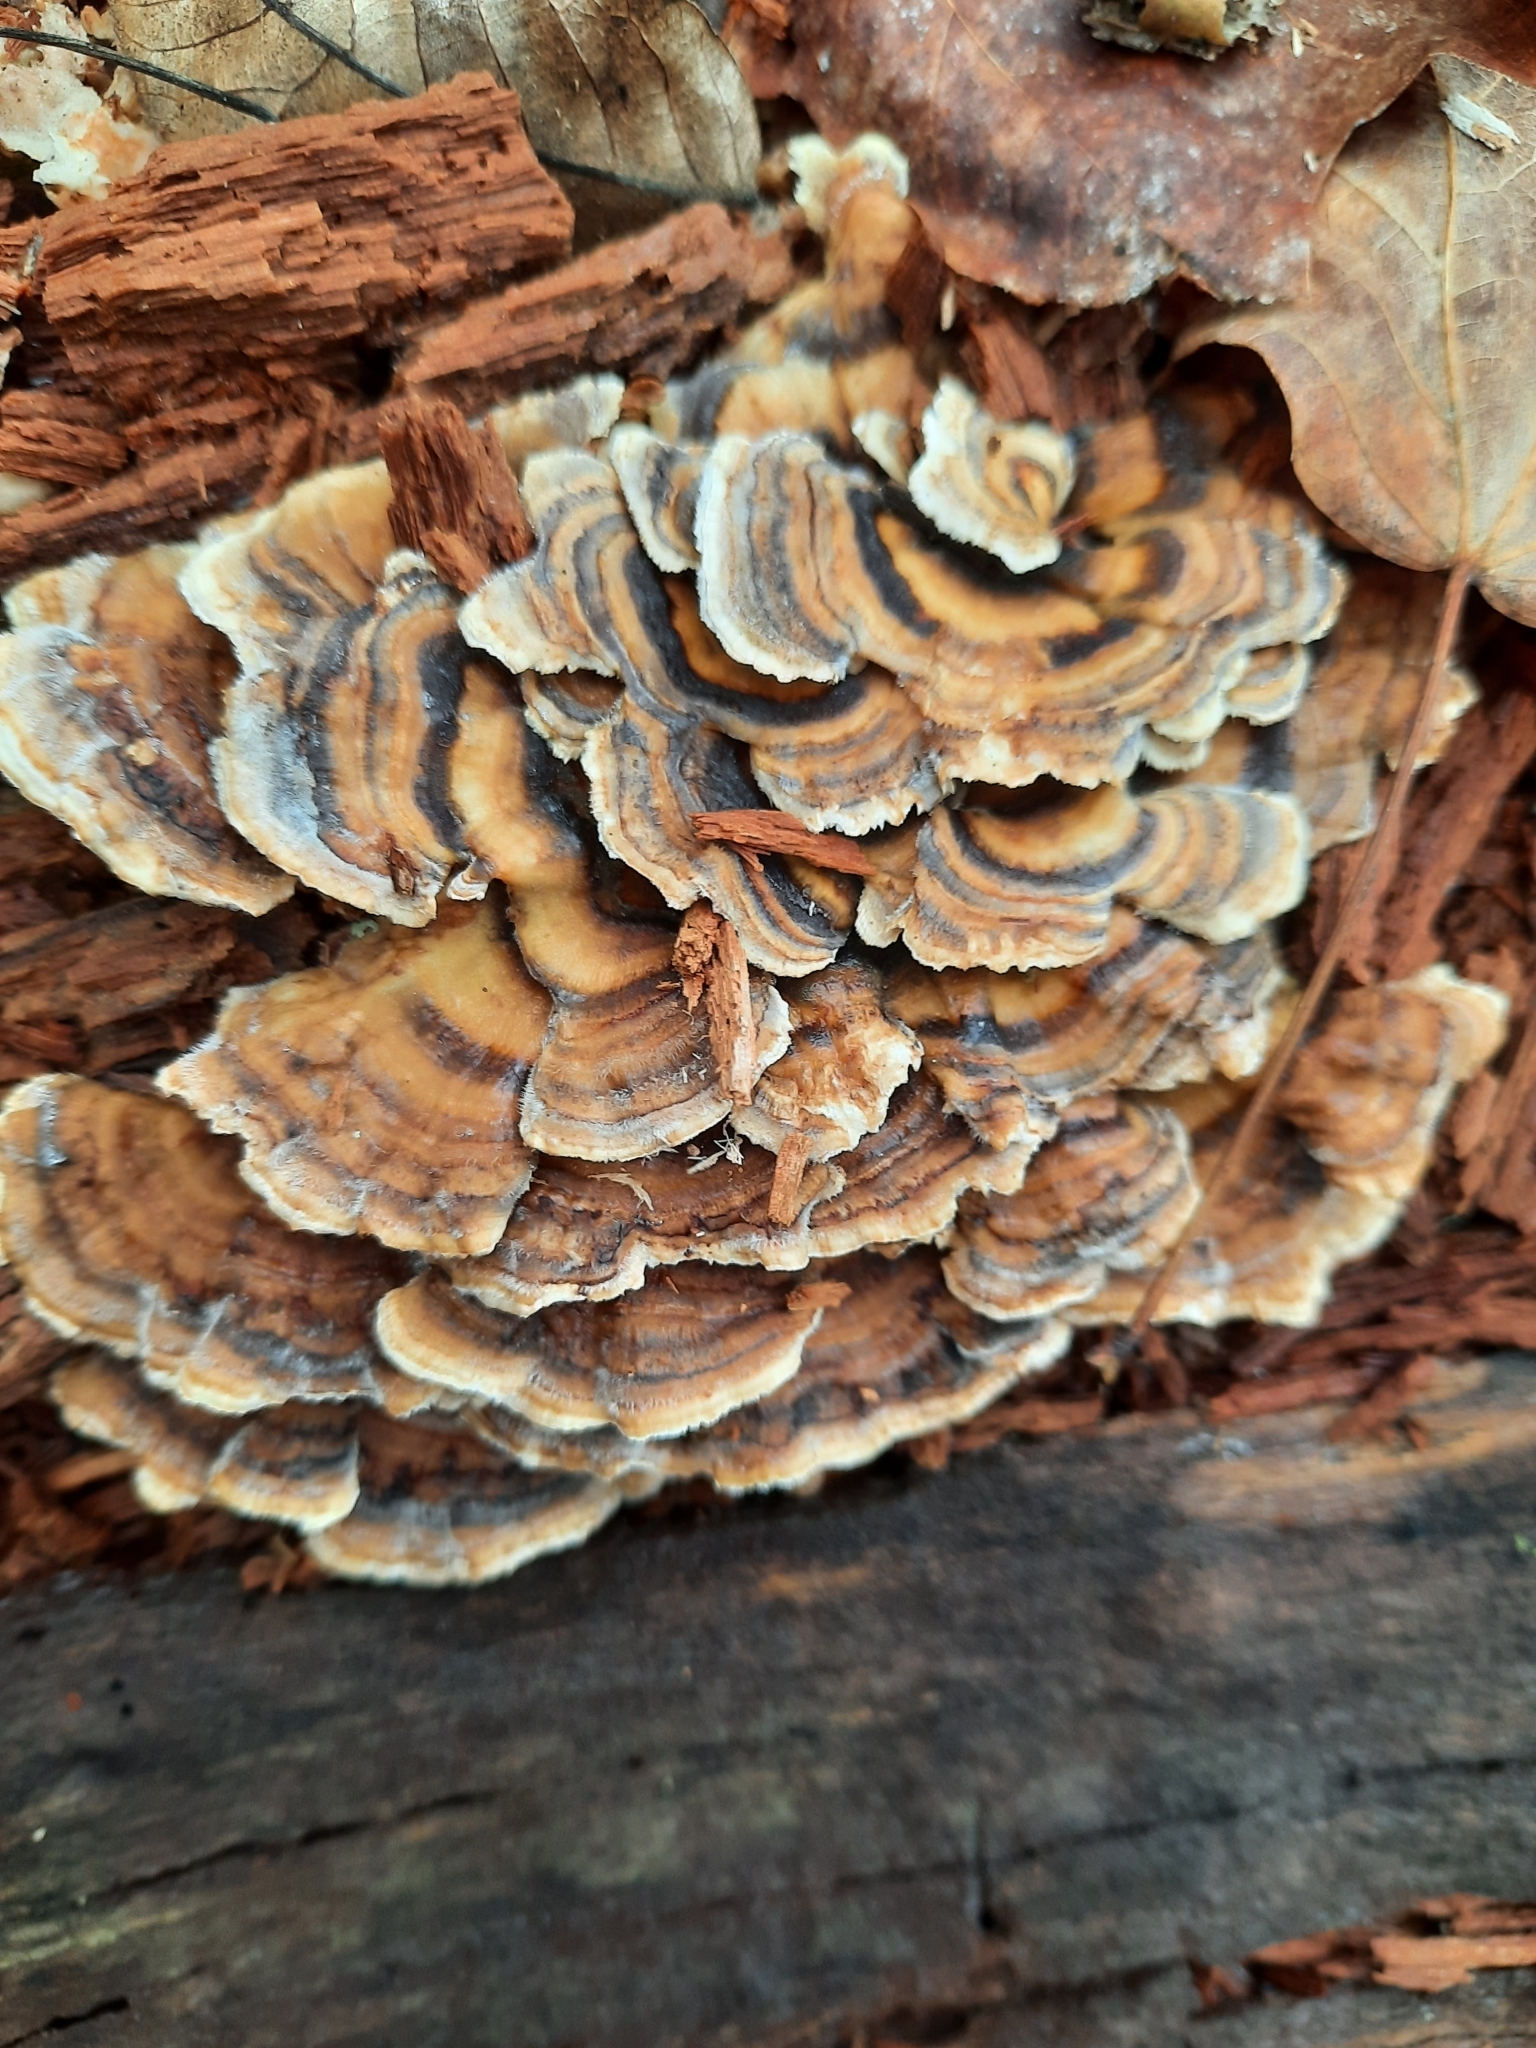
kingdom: Fungi
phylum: Basidiomycota
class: Agaricomycetes
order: Polyporales
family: Polyporaceae
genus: Trametes
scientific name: Trametes versicolor
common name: Turkeytail
